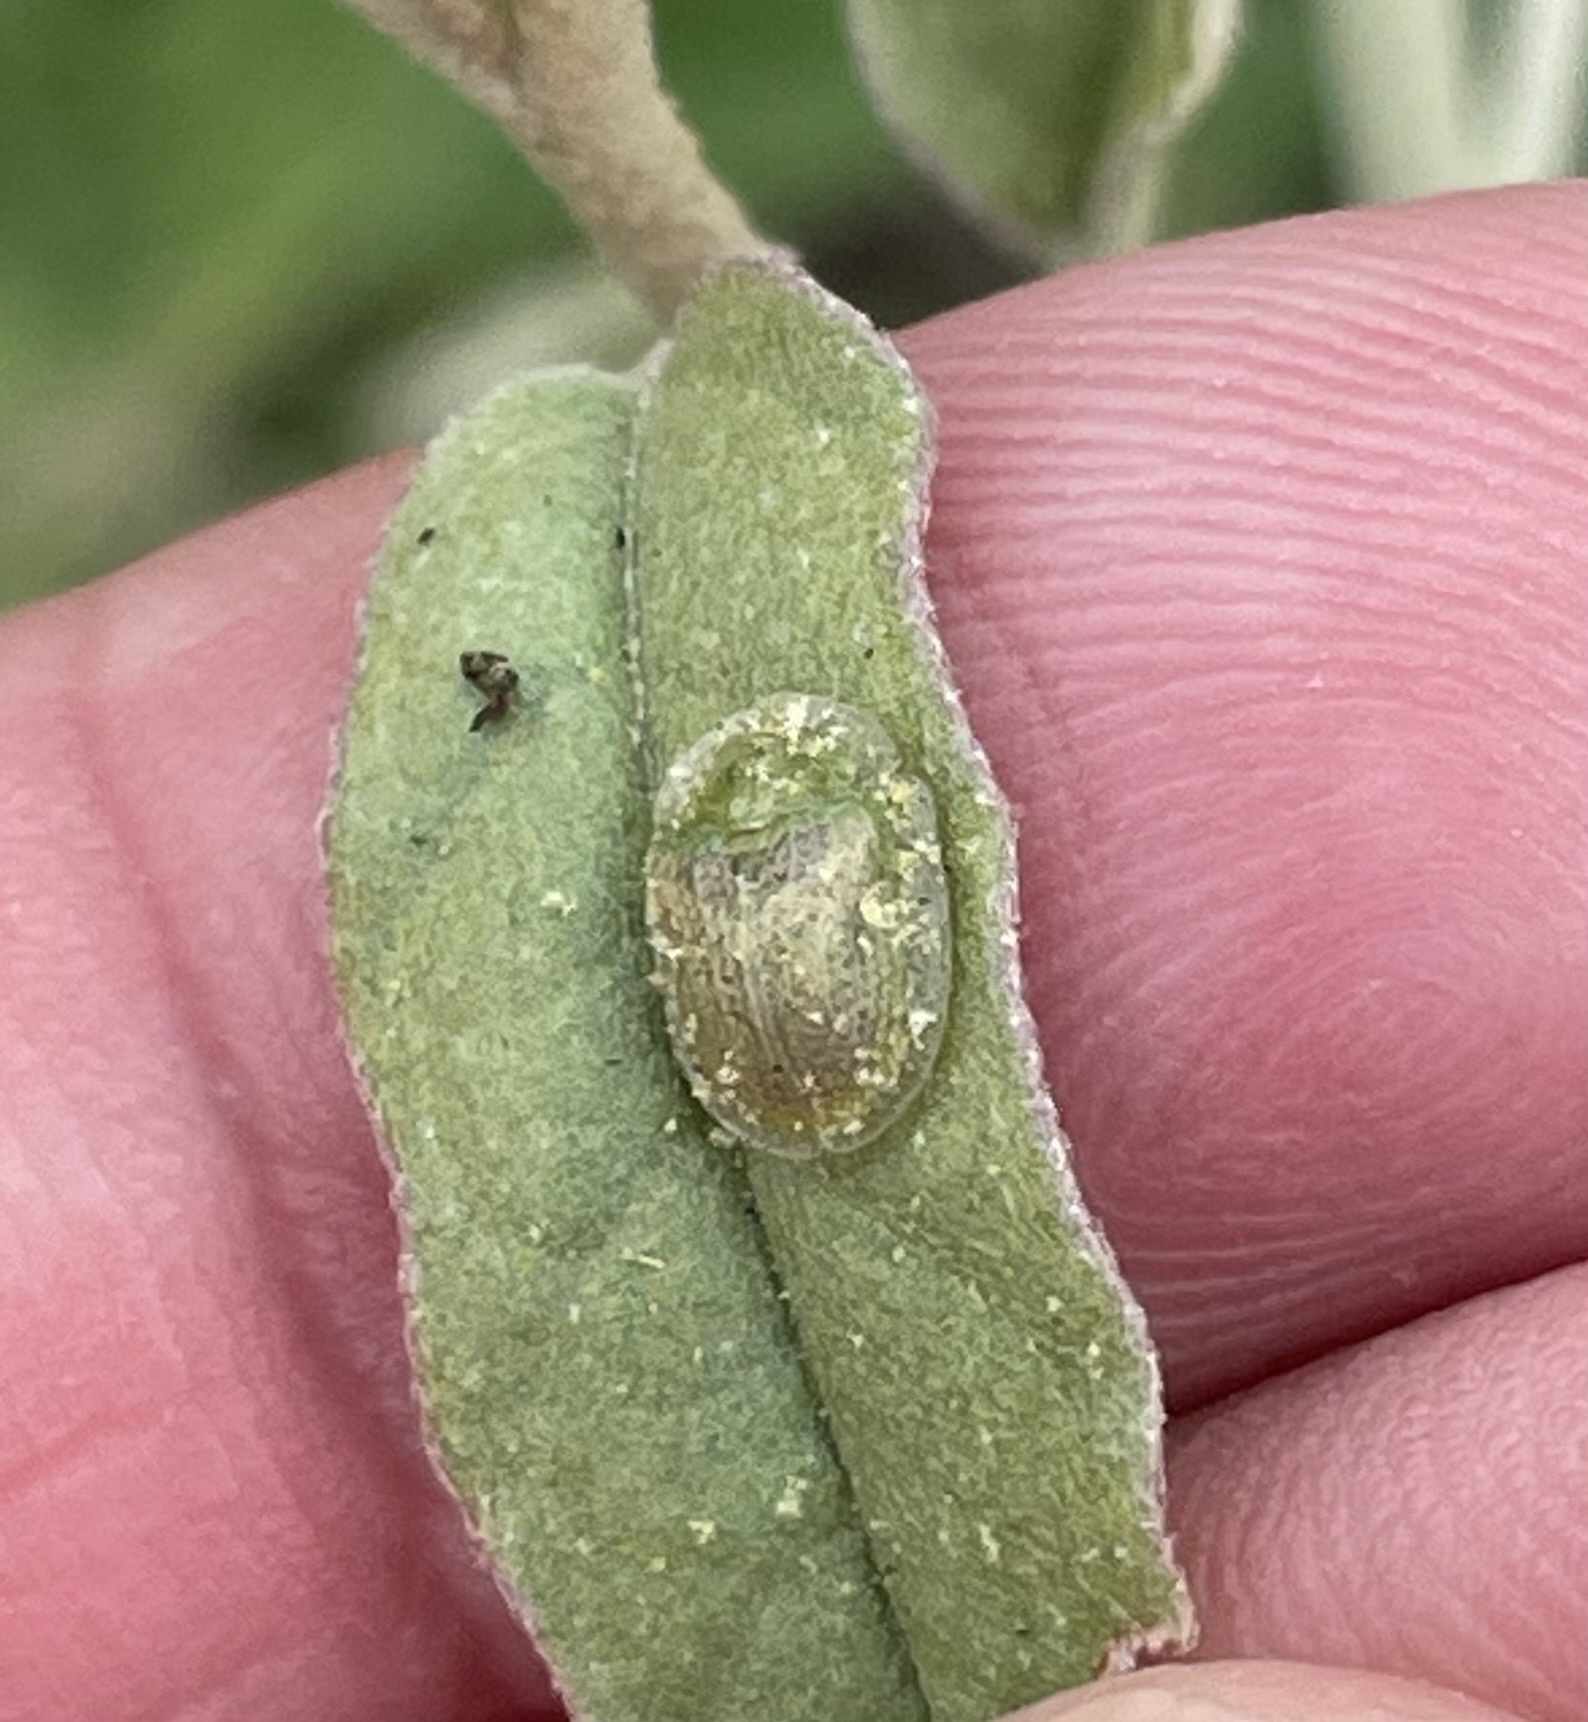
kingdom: Animalia
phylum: Arthropoda
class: Insecta
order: Coleoptera
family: Chrysomelidae
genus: Gratiana
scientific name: Gratiana pallidula
